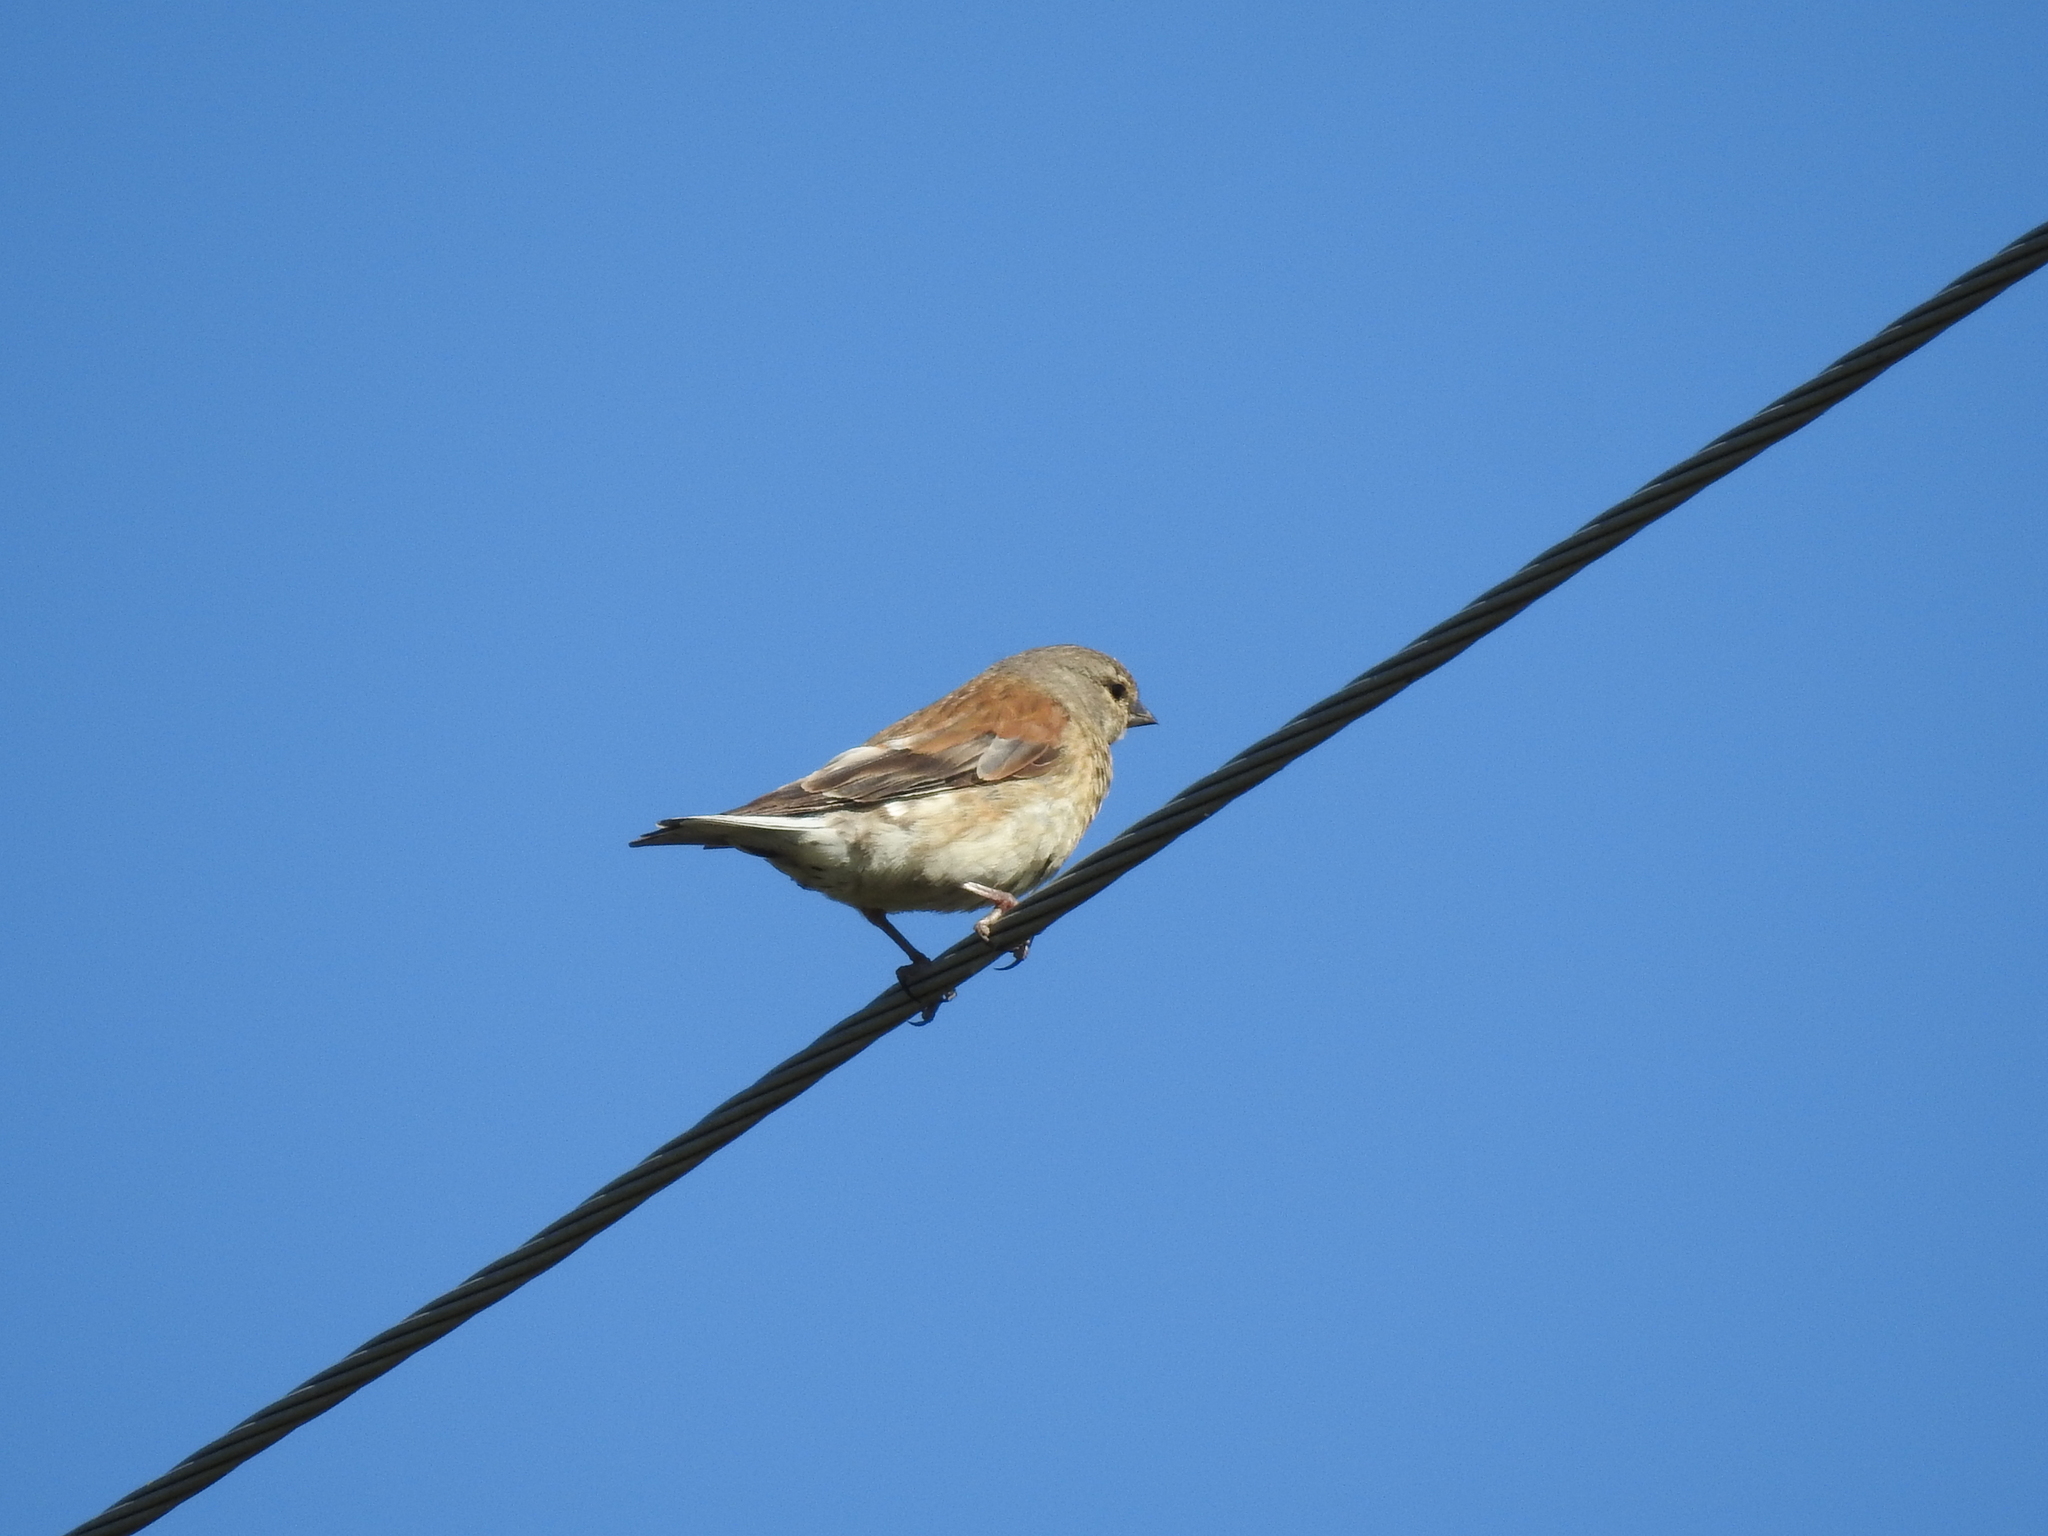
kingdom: Animalia
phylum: Chordata
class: Aves
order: Passeriformes
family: Fringillidae
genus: Linaria
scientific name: Linaria cannabina
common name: Common linnet
